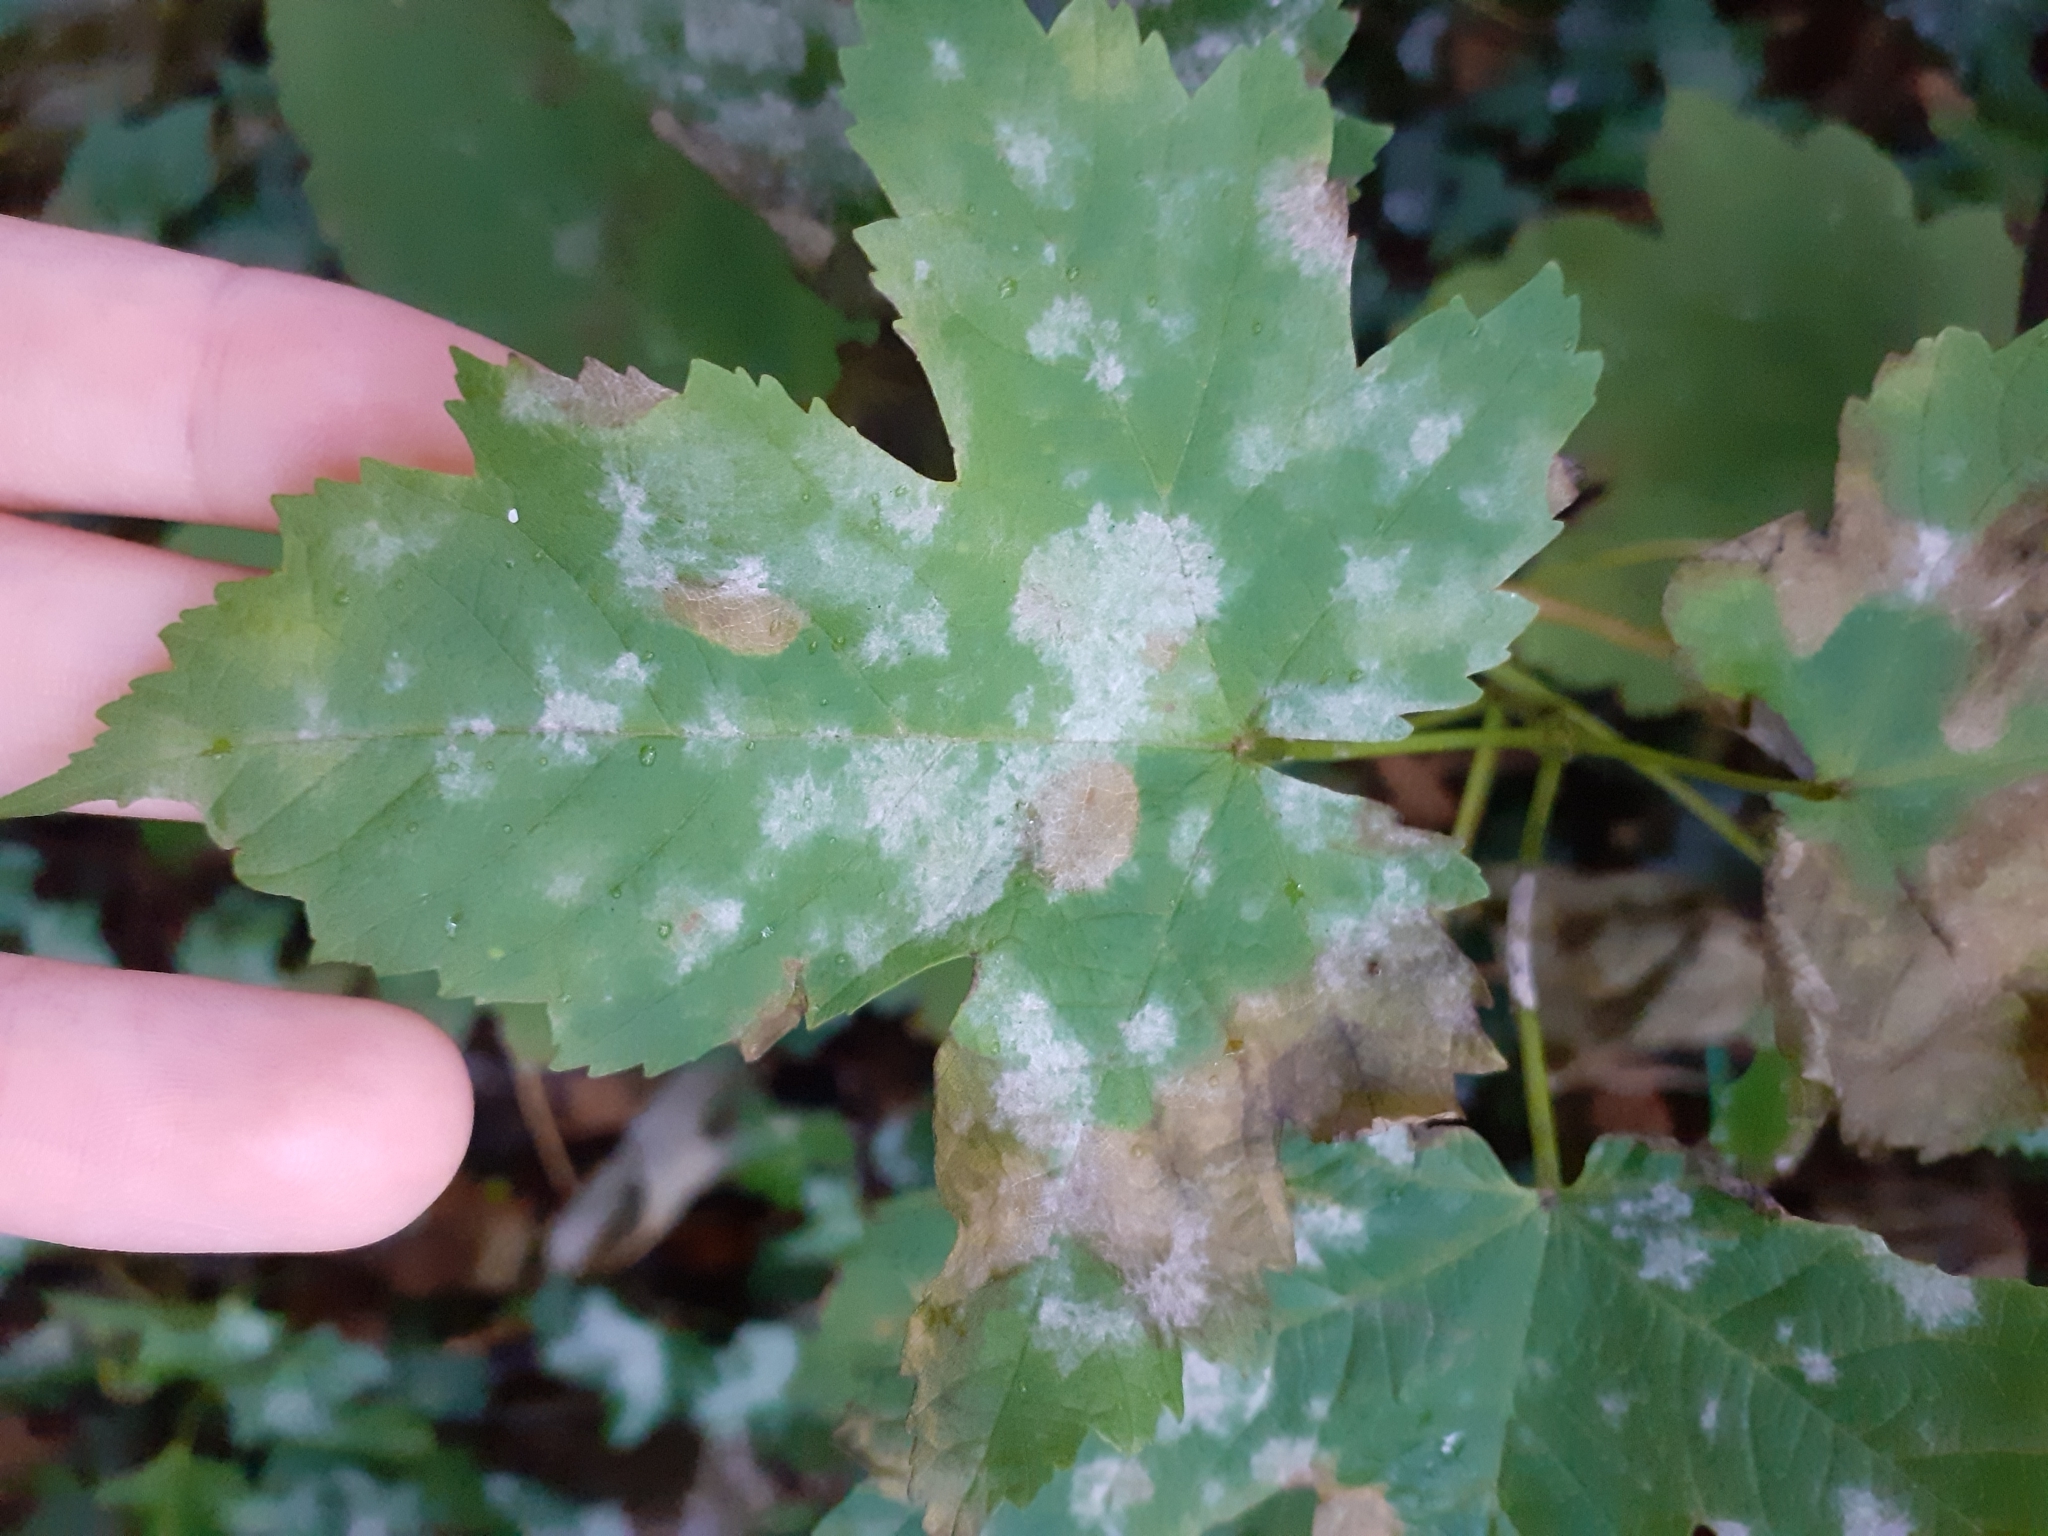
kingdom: Fungi
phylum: Ascomycota
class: Leotiomycetes
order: Helotiales
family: Erysiphaceae
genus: Sawadaea
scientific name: Sawadaea bicornis
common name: Maple mildew
